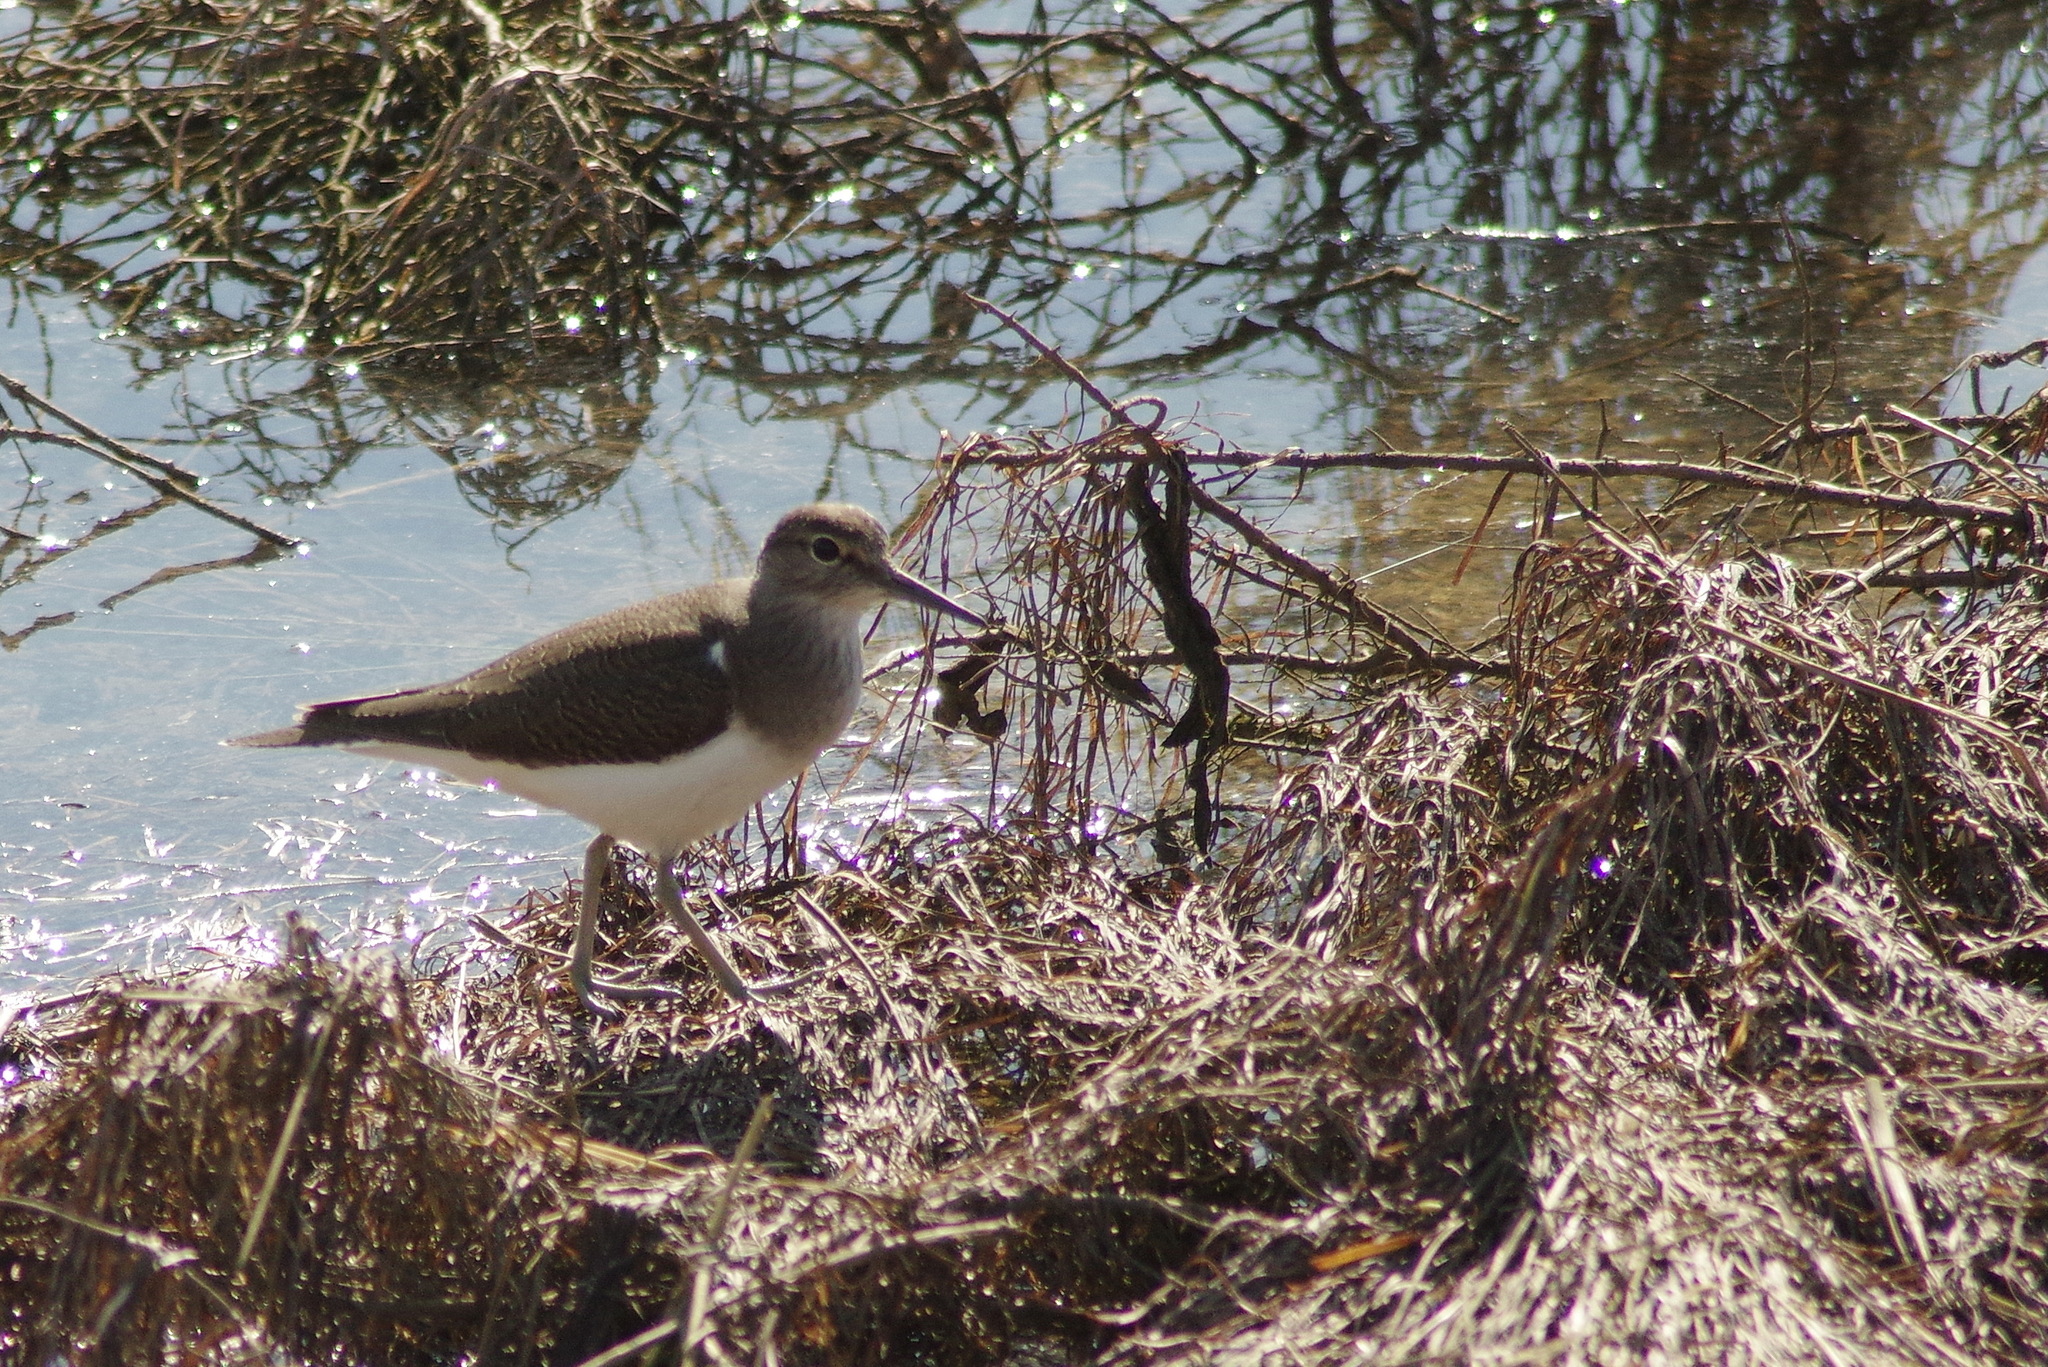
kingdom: Animalia
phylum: Chordata
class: Aves
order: Charadriiformes
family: Scolopacidae
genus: Actitis
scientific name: Actitis hypoleucos
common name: Common sandpiper
